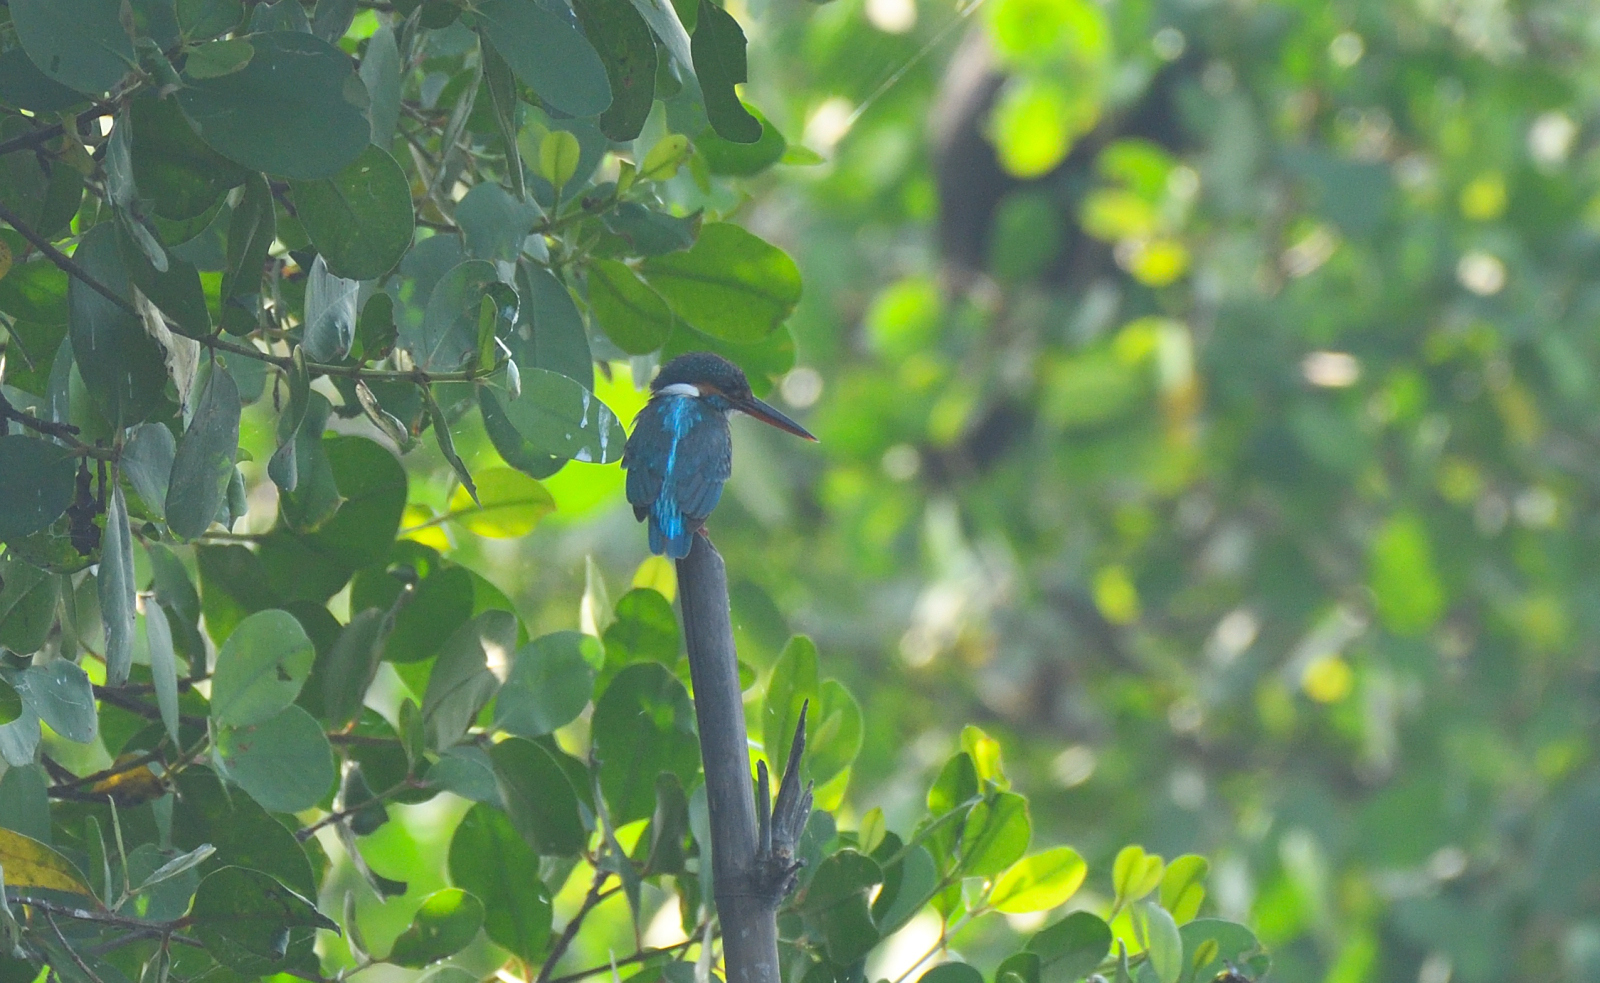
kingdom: Animalia
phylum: Chordata
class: Aves
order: Coraciiformes
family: Alcedinidae
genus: Alcedo
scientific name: Alcedo meninting
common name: Blue-eared kingfisher
